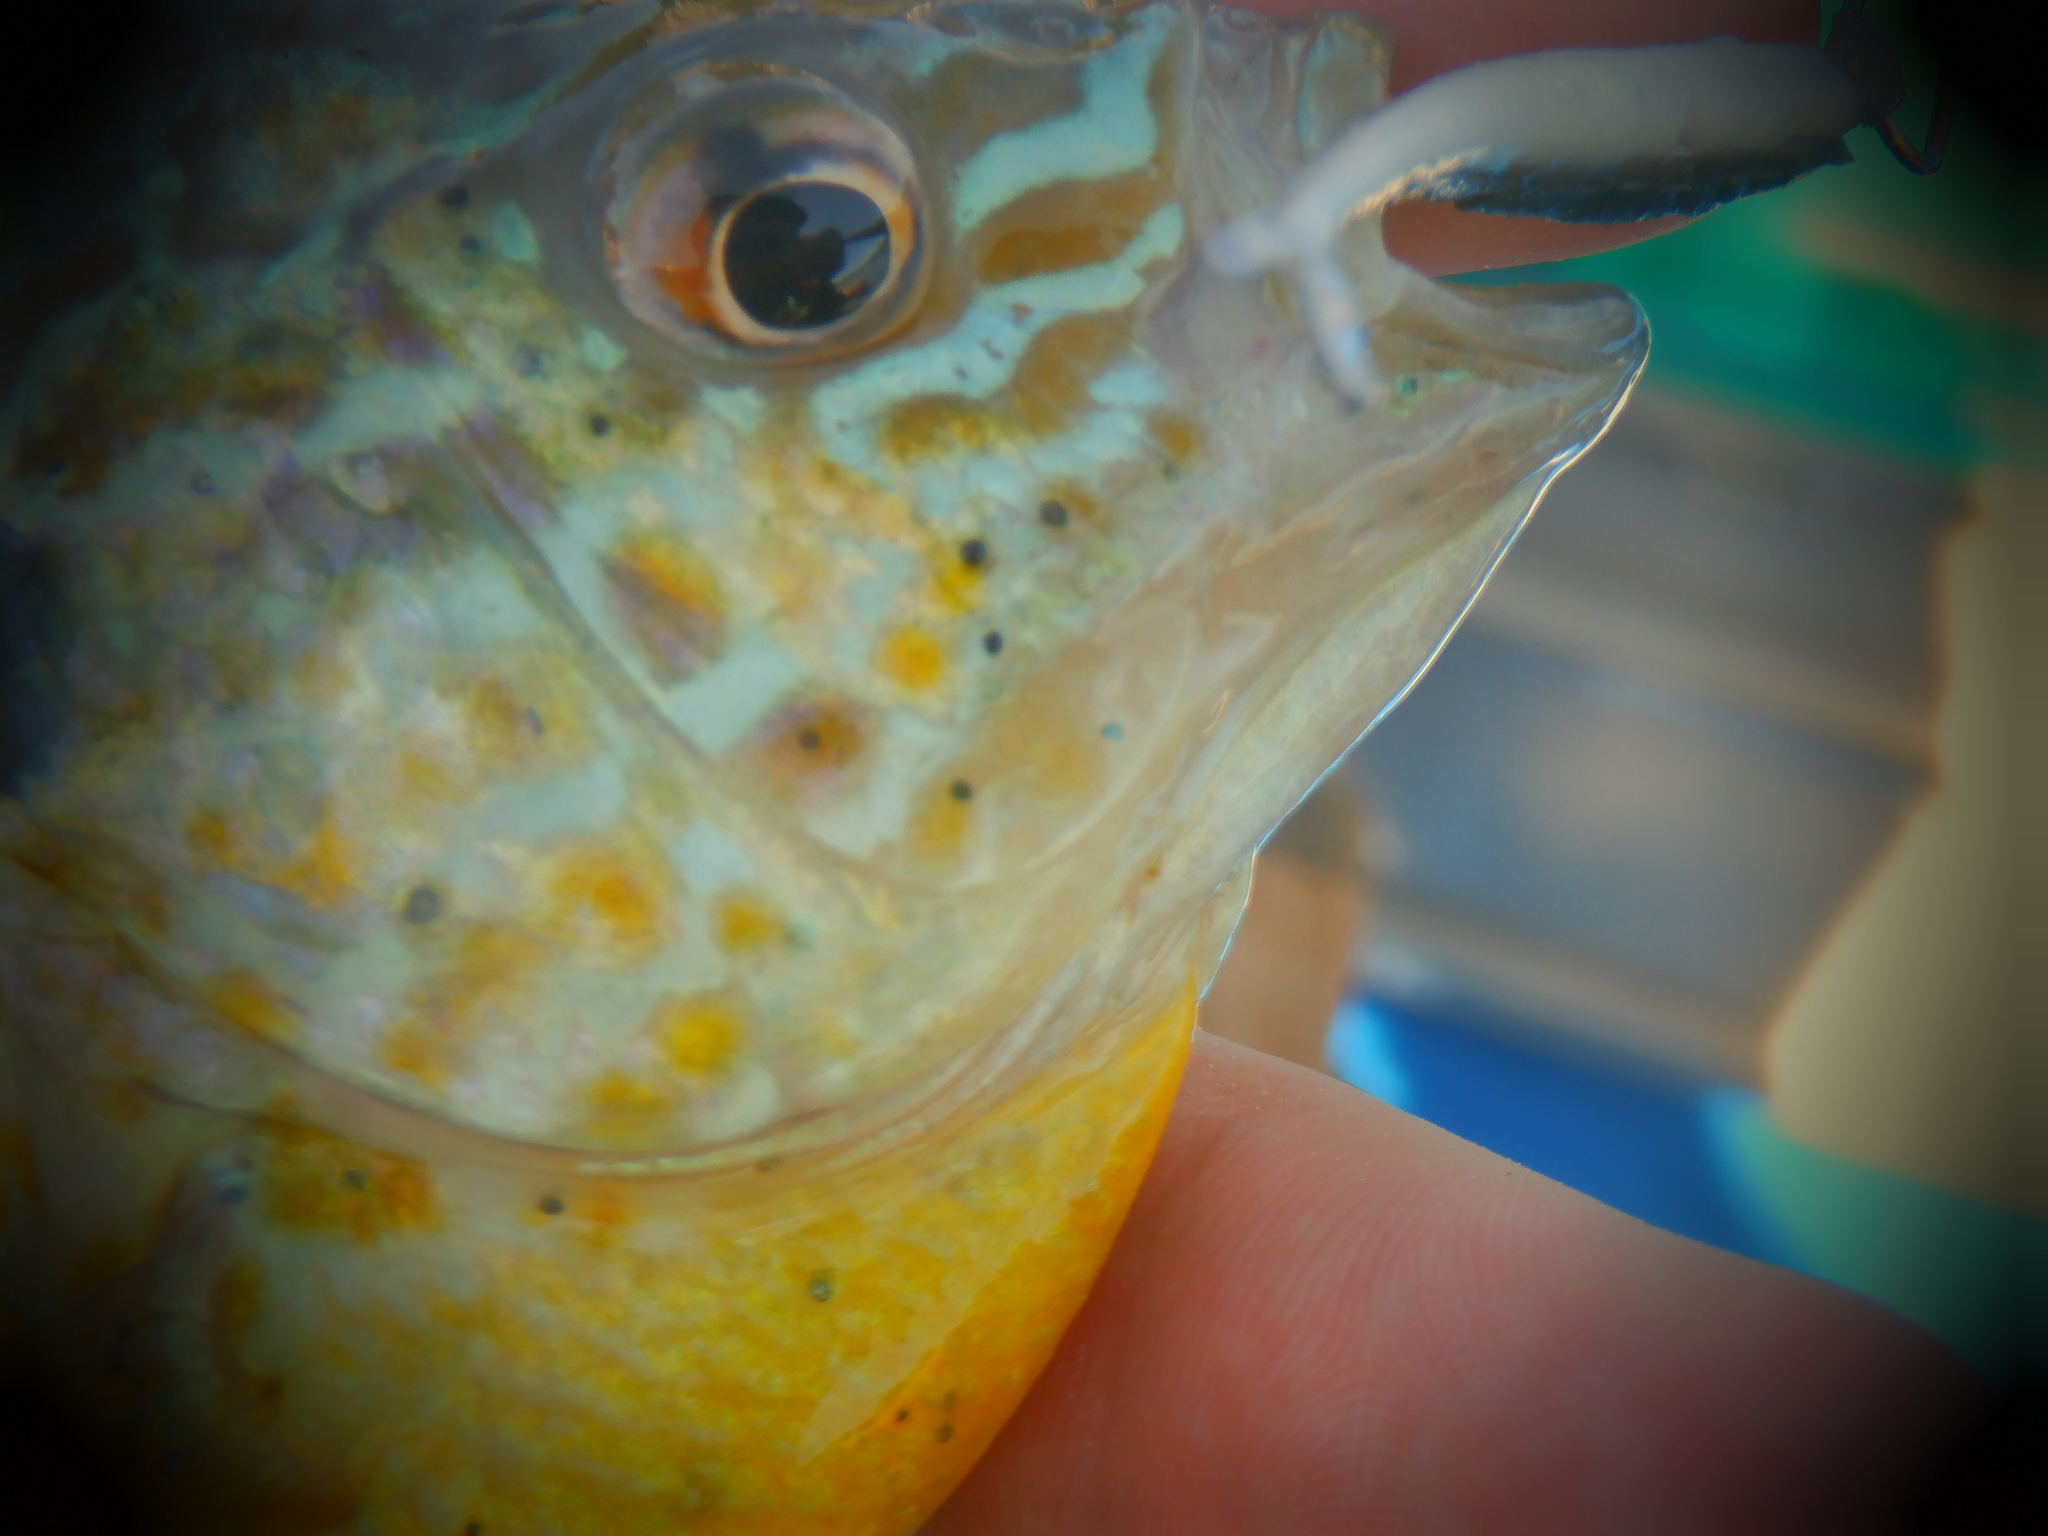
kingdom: Animalia
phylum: Platyhelminthes
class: Trematoda
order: Diplostomida
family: Diplostomidae
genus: Neascus
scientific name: Neascus
